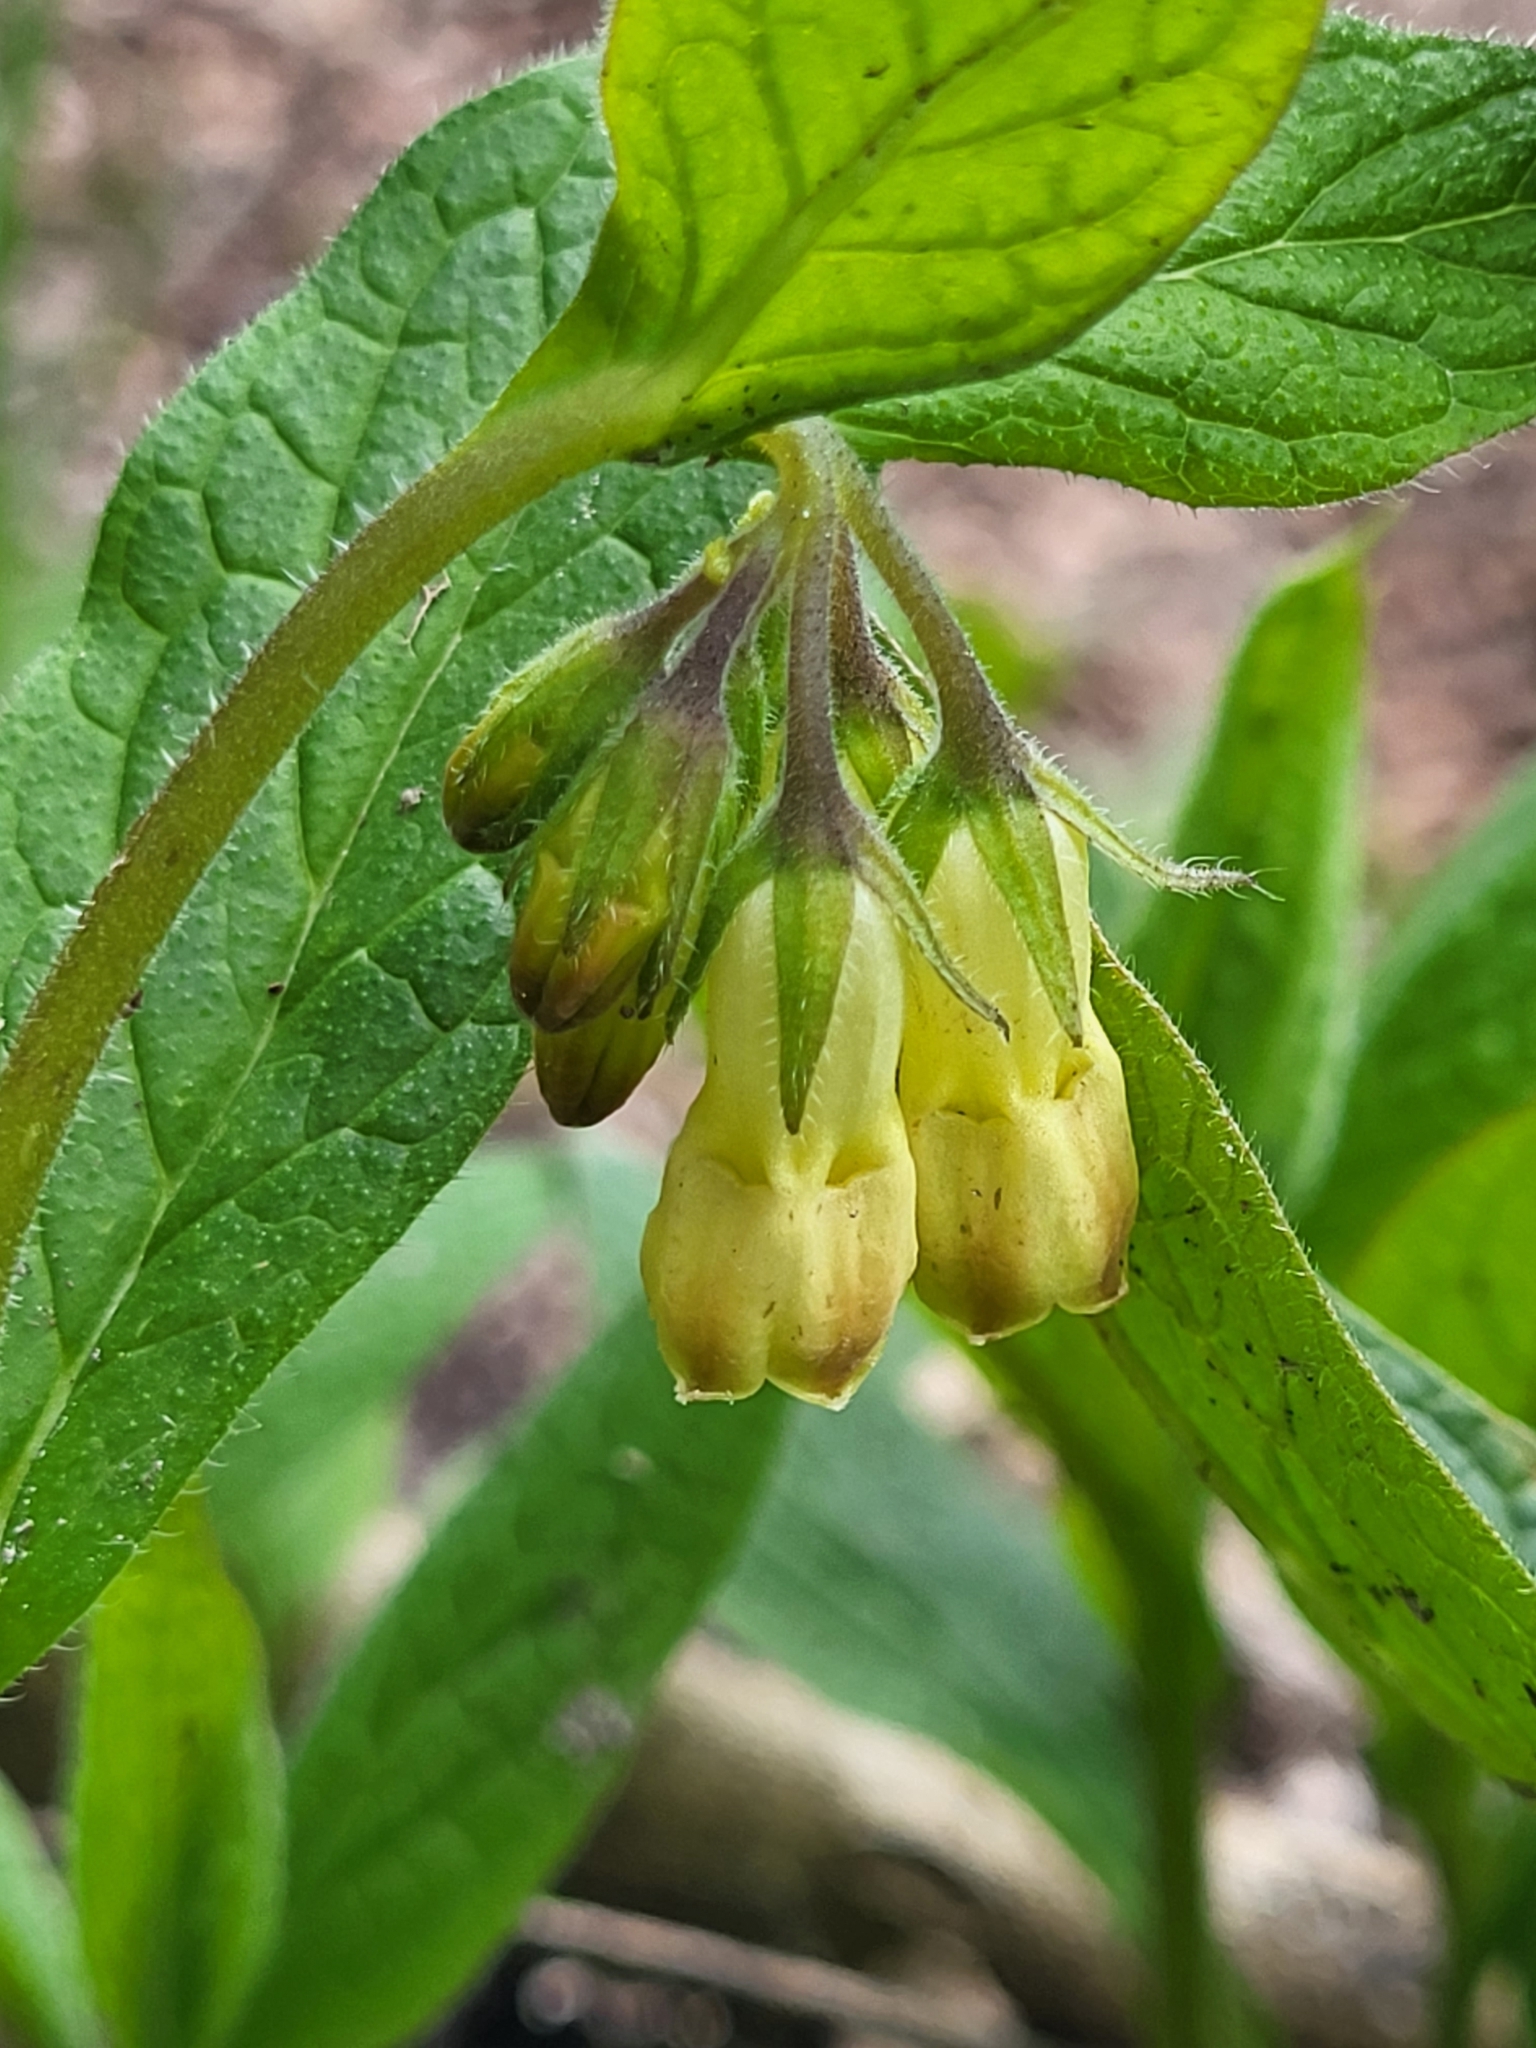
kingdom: Plantae
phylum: Tracheophyta
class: Magnoliopsida
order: Boraginales
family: Boraginaceae
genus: Symphytum
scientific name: Symphytum tuberosum
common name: Tuberous comfrey
